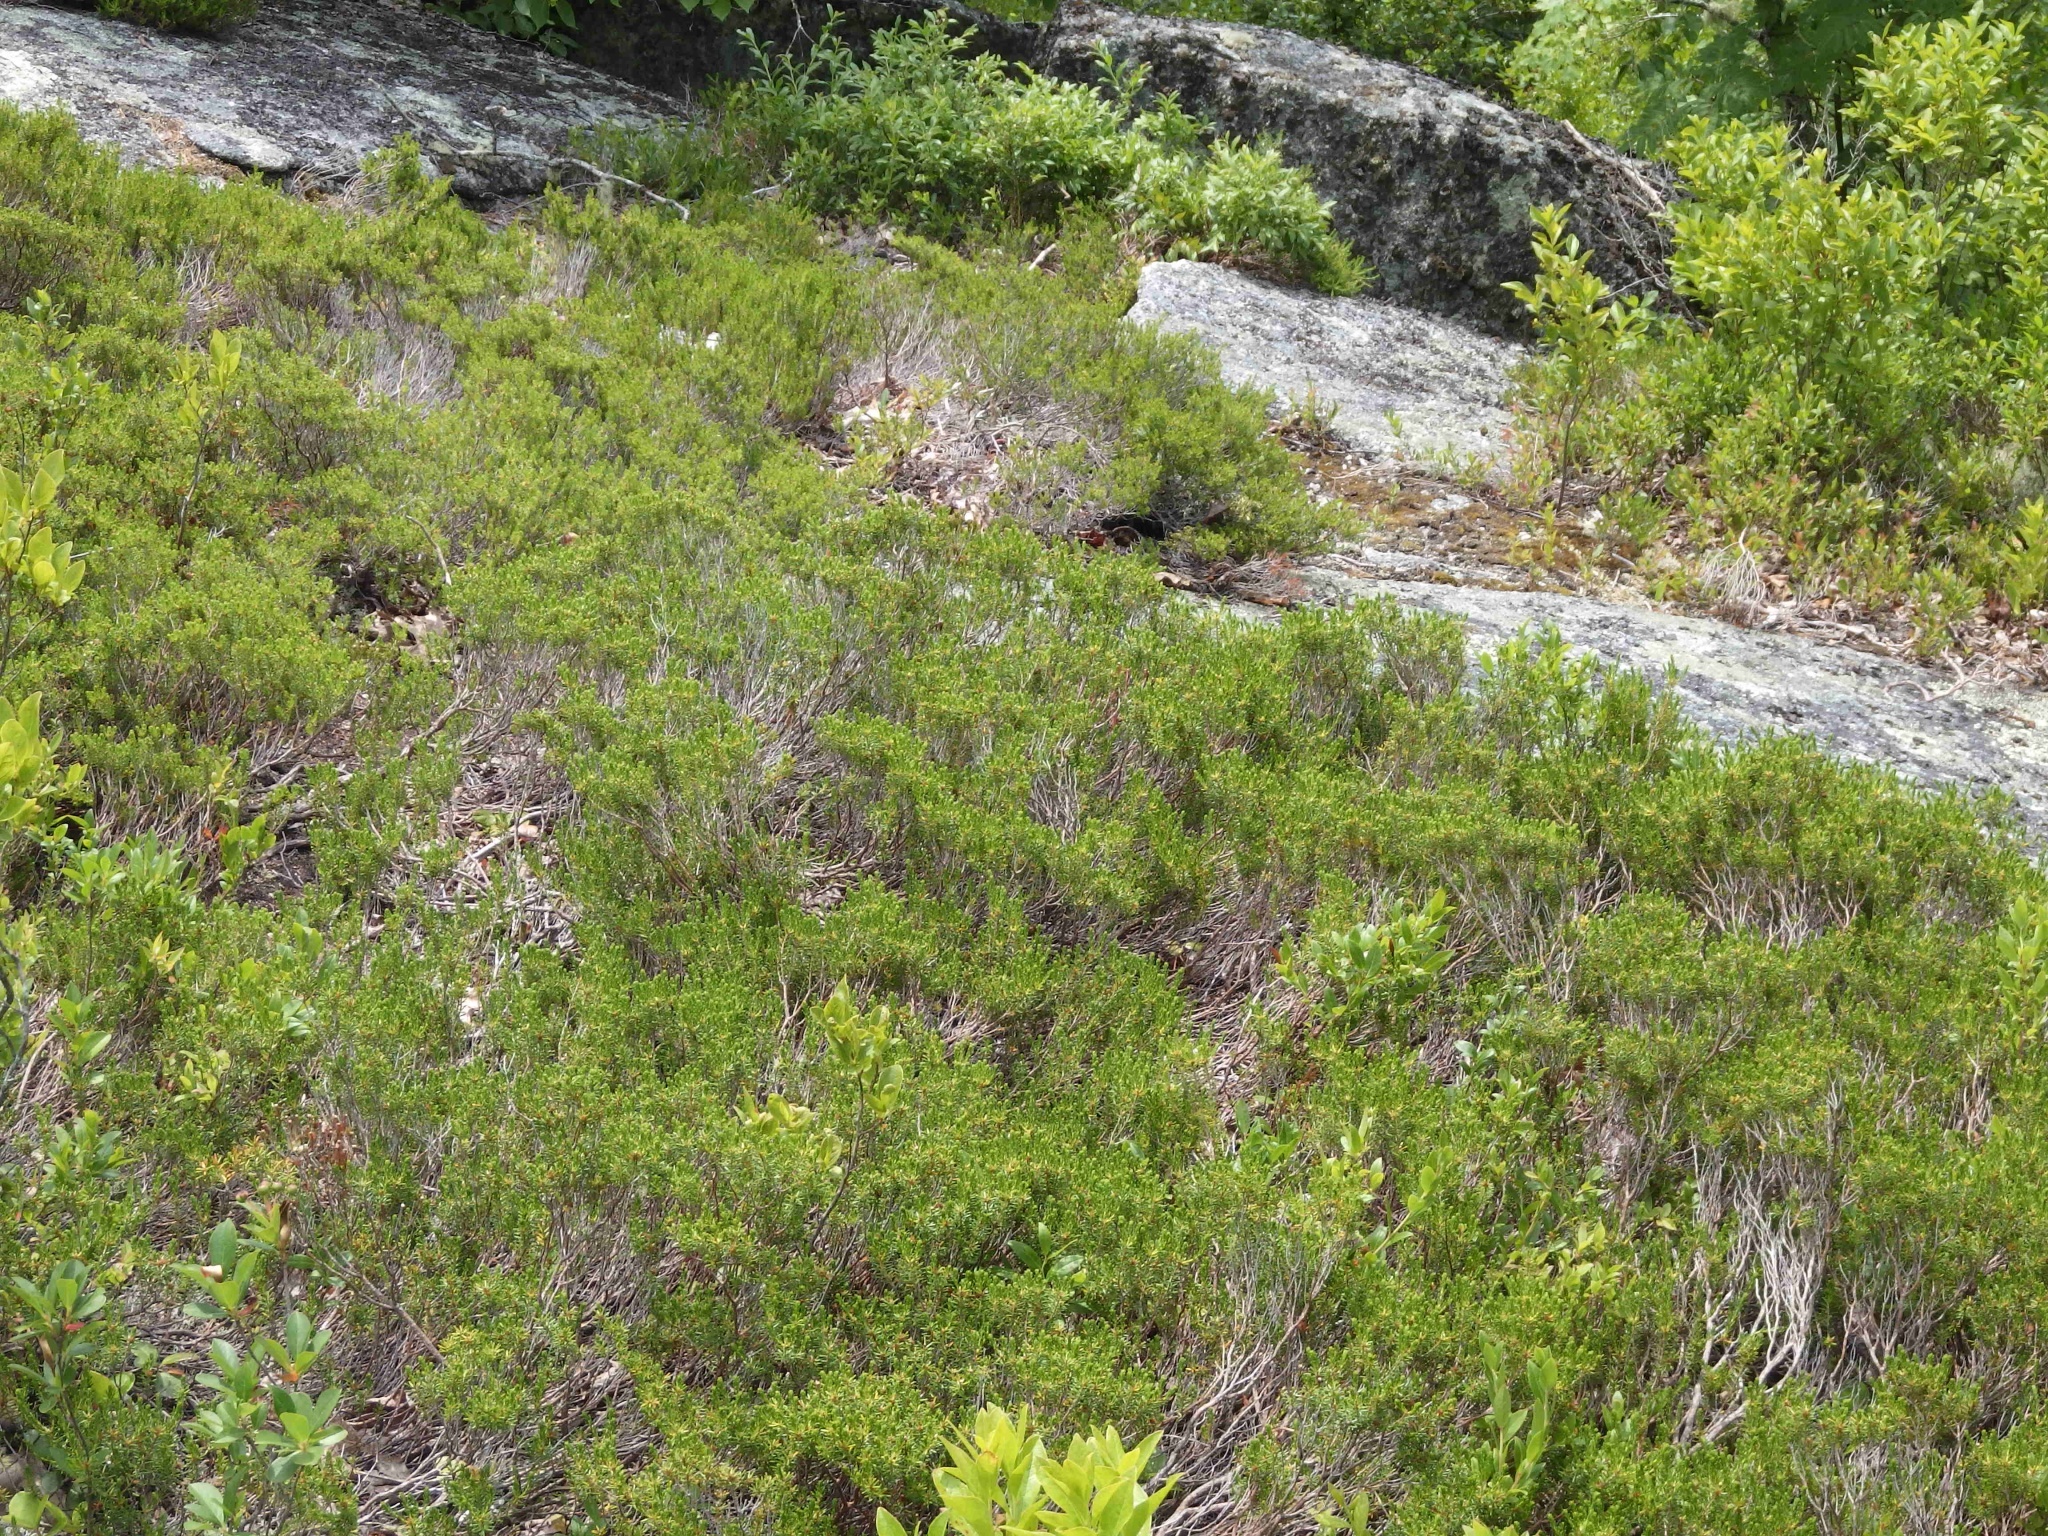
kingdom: Plantae
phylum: Tracheophyta
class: Magnoliopsida
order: Ericales
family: Ericaceae
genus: Corema
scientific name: Corema conradii
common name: Broom-crowberry
